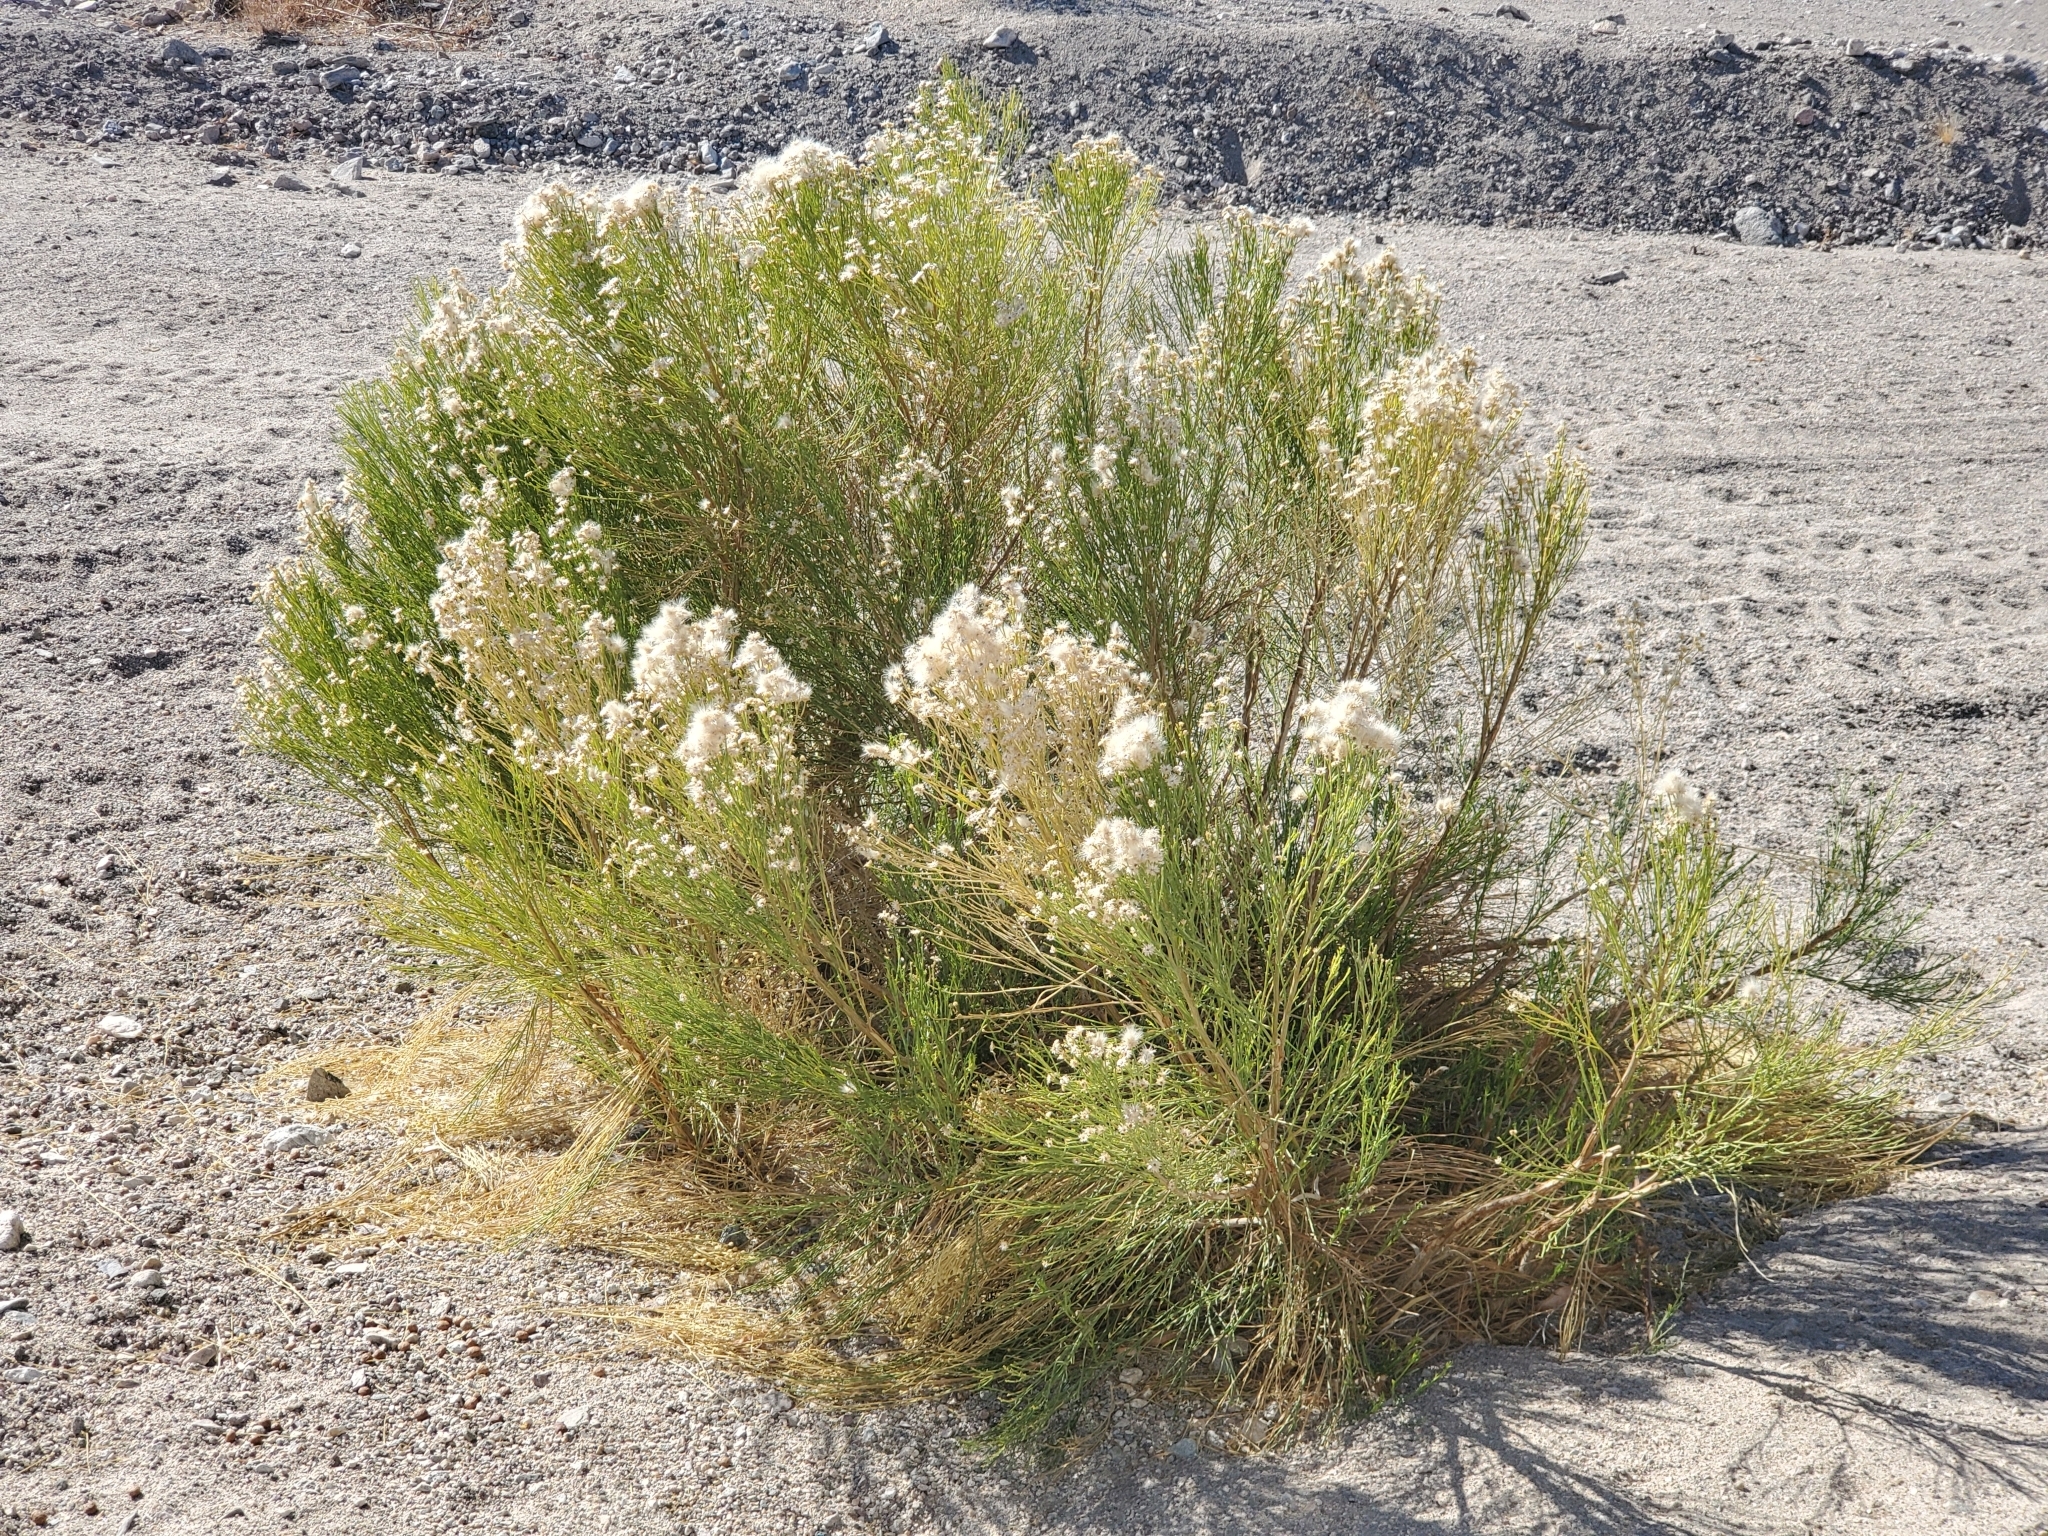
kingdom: Plantae
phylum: Tracheophyta
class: Magnoliopsida
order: Asterales
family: Asteraceae
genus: Baccharis
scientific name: Baccharis sarothroides
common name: Desert-broom
